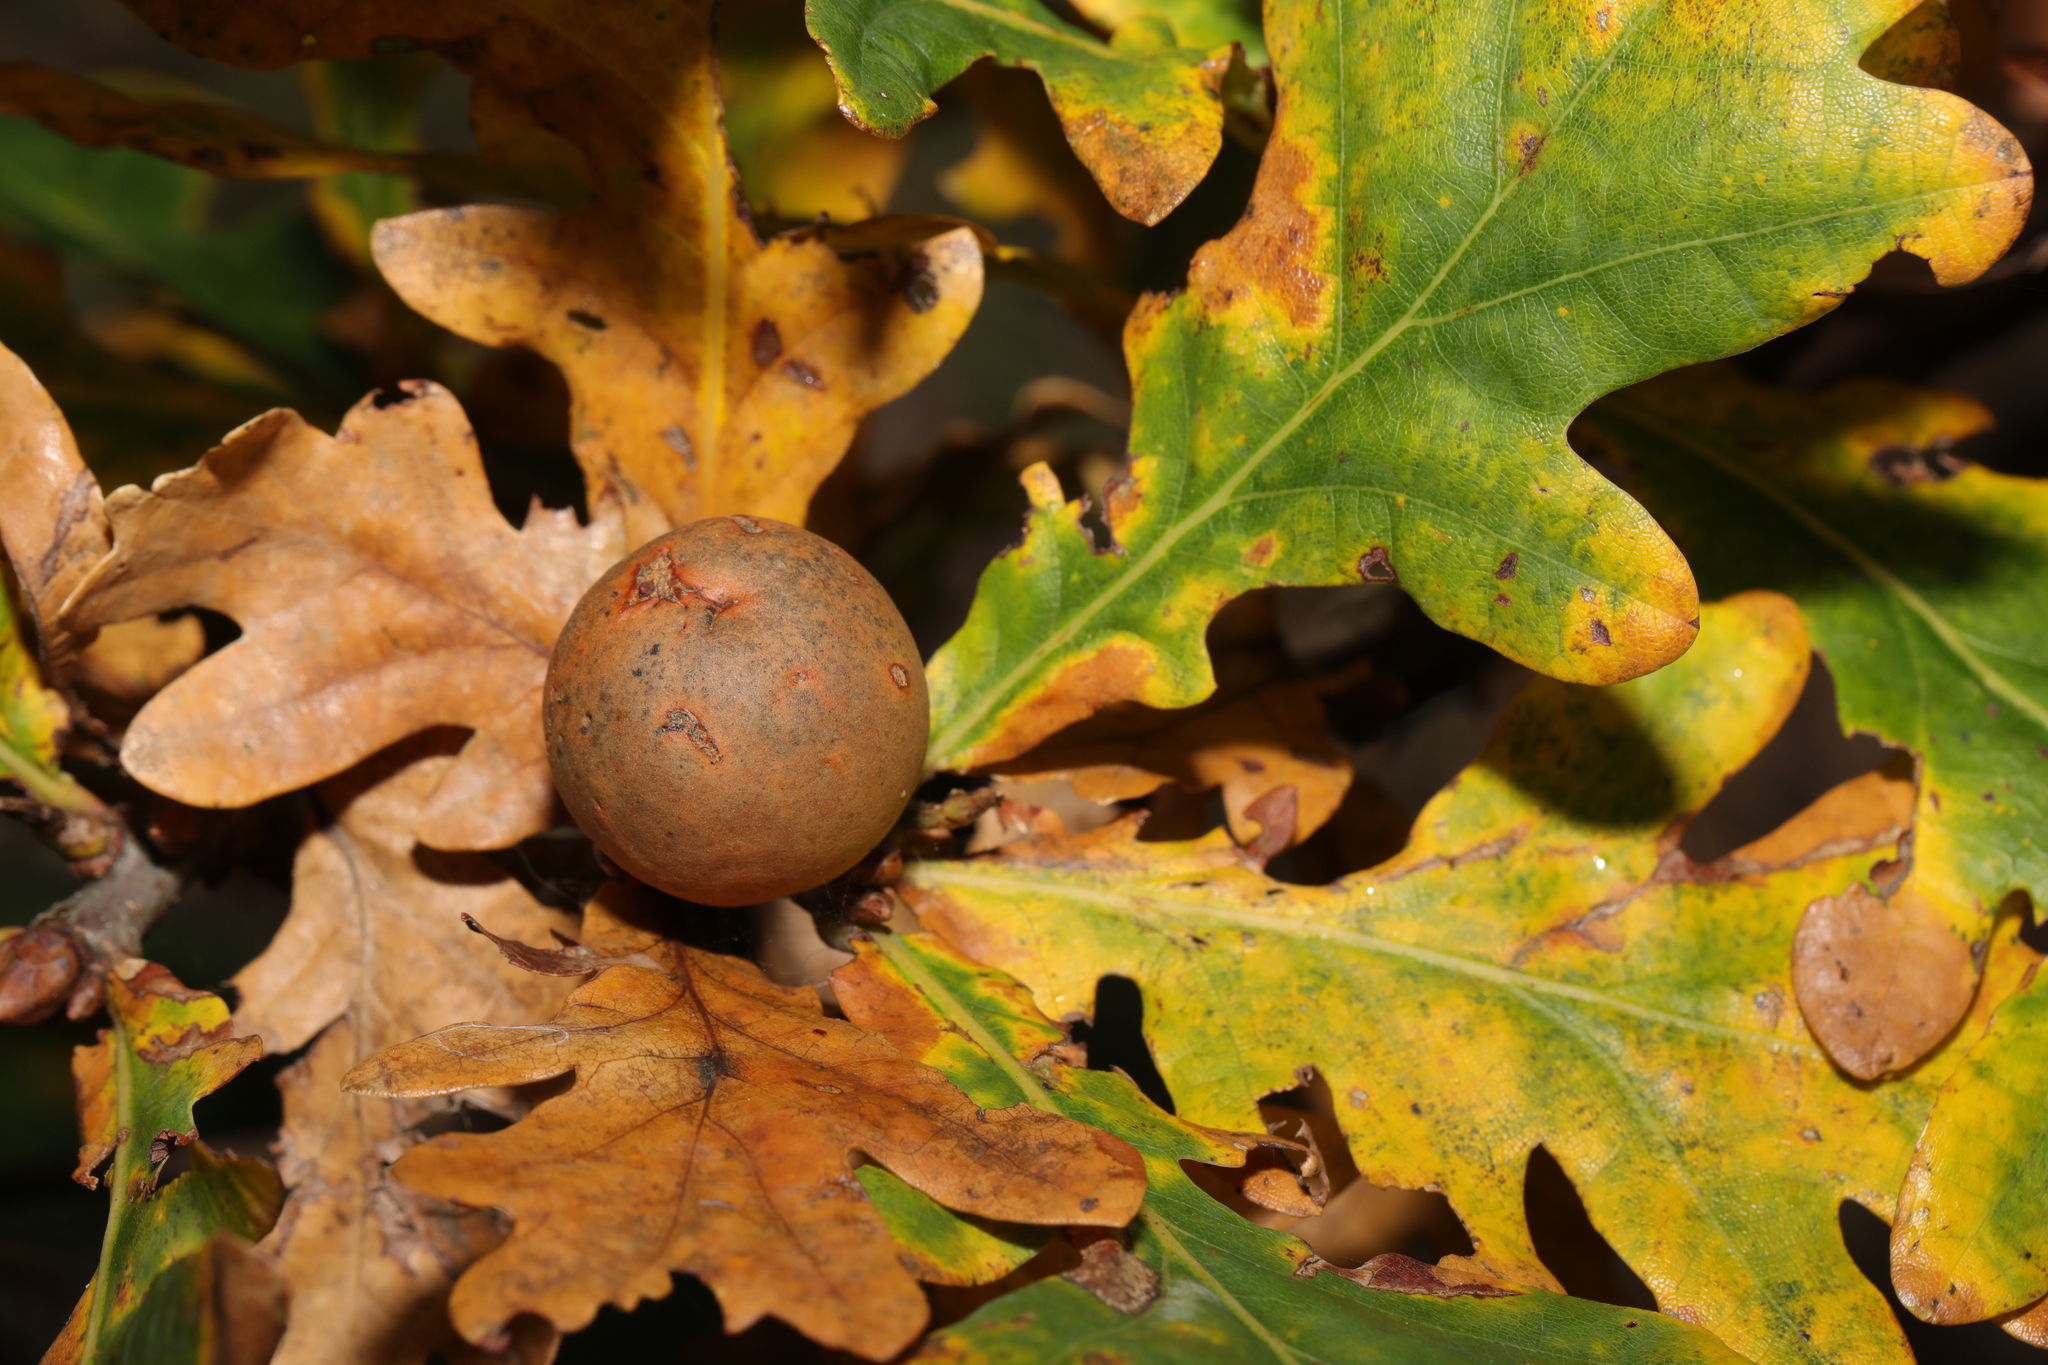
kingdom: Animalia
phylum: Arthropoda
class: Insecta
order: Hymenoptera
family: Cynipidae
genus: Andricus
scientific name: Andricus kollari
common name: Marble gall
